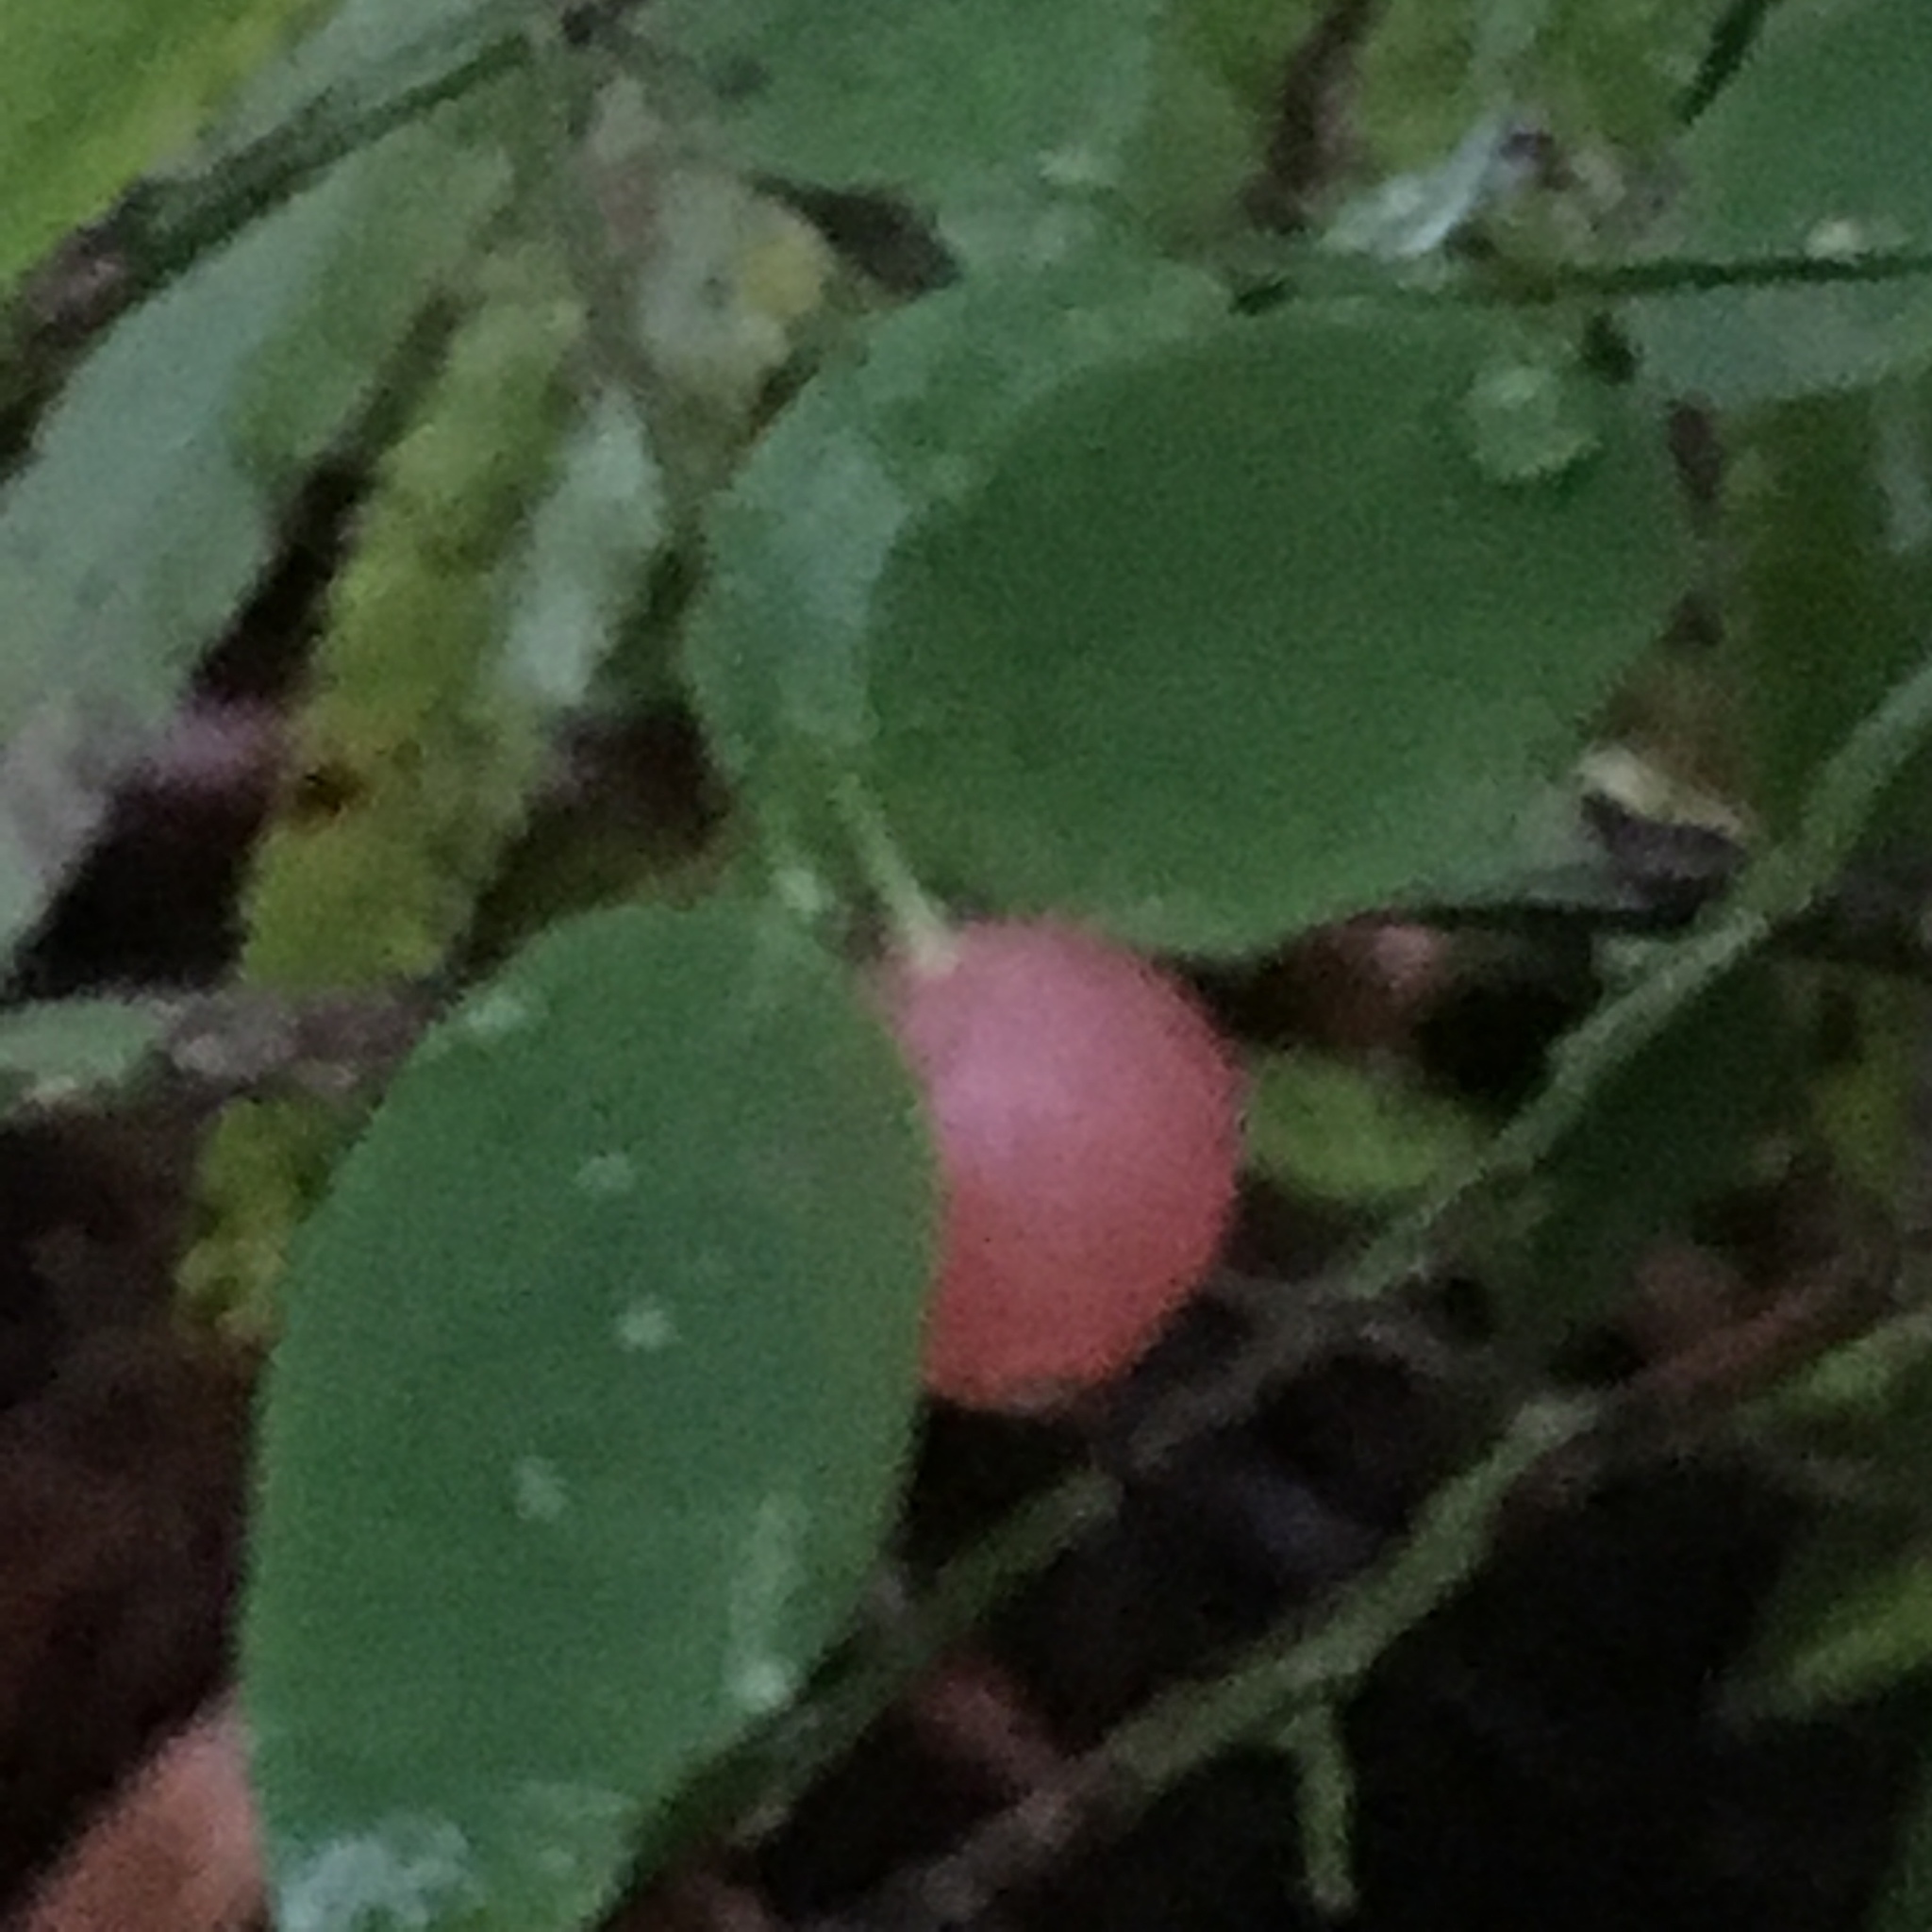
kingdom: Plantae
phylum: Tracheophyta
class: Magnoliopsida
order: Ericales
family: Ericaceae
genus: Vaccinium
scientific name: Vaccinium parvifolium
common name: Red-huckleberry
